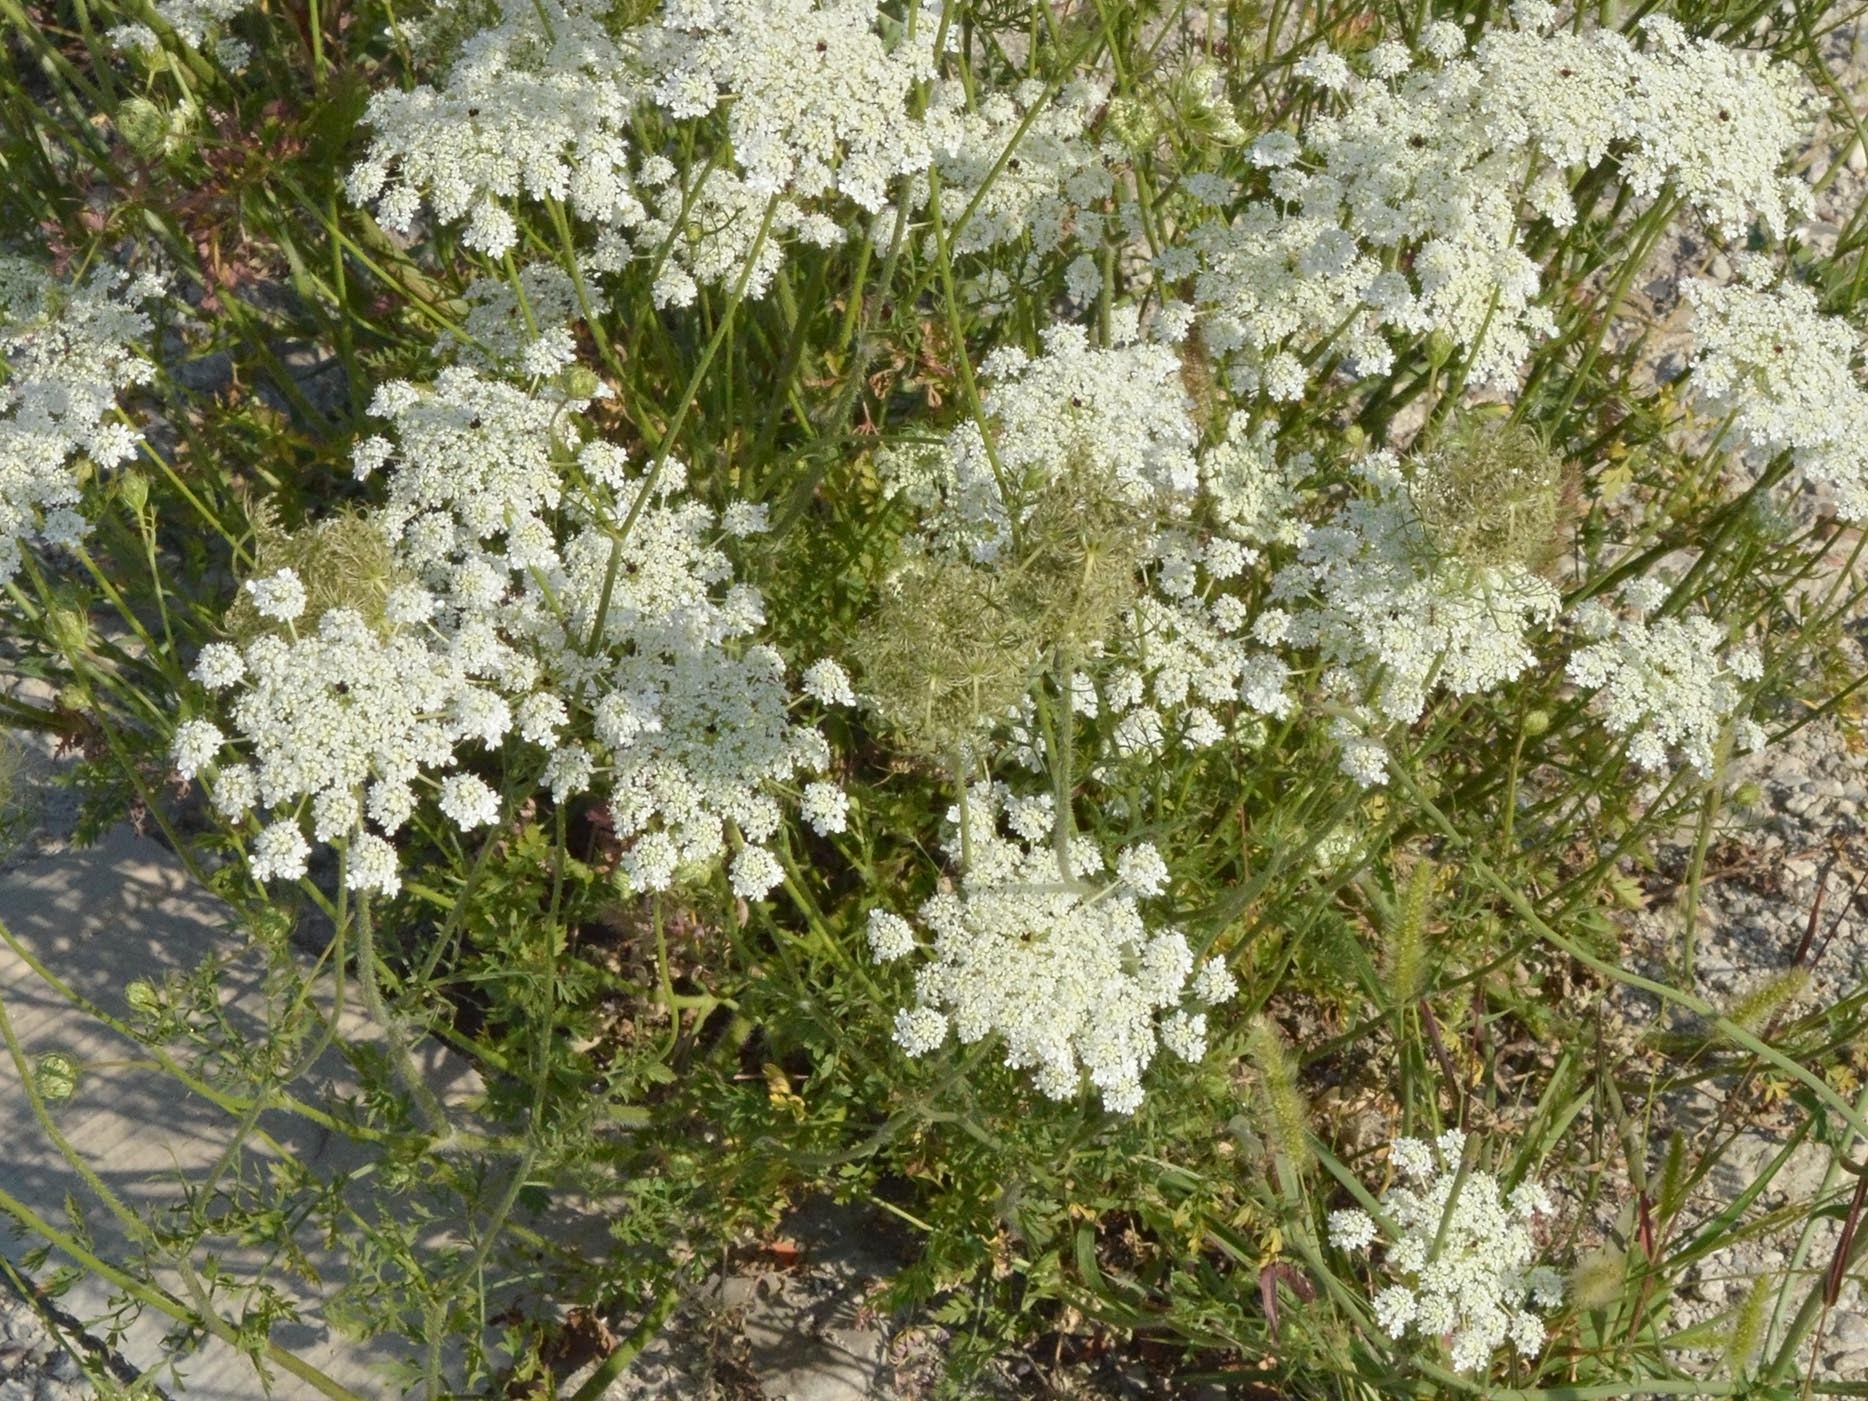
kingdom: Plantae
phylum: Tracheophyta
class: Magnoliopsida
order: Apiales
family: Apiaceae
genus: Daucus
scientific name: Daucus carota
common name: Wild carrot
